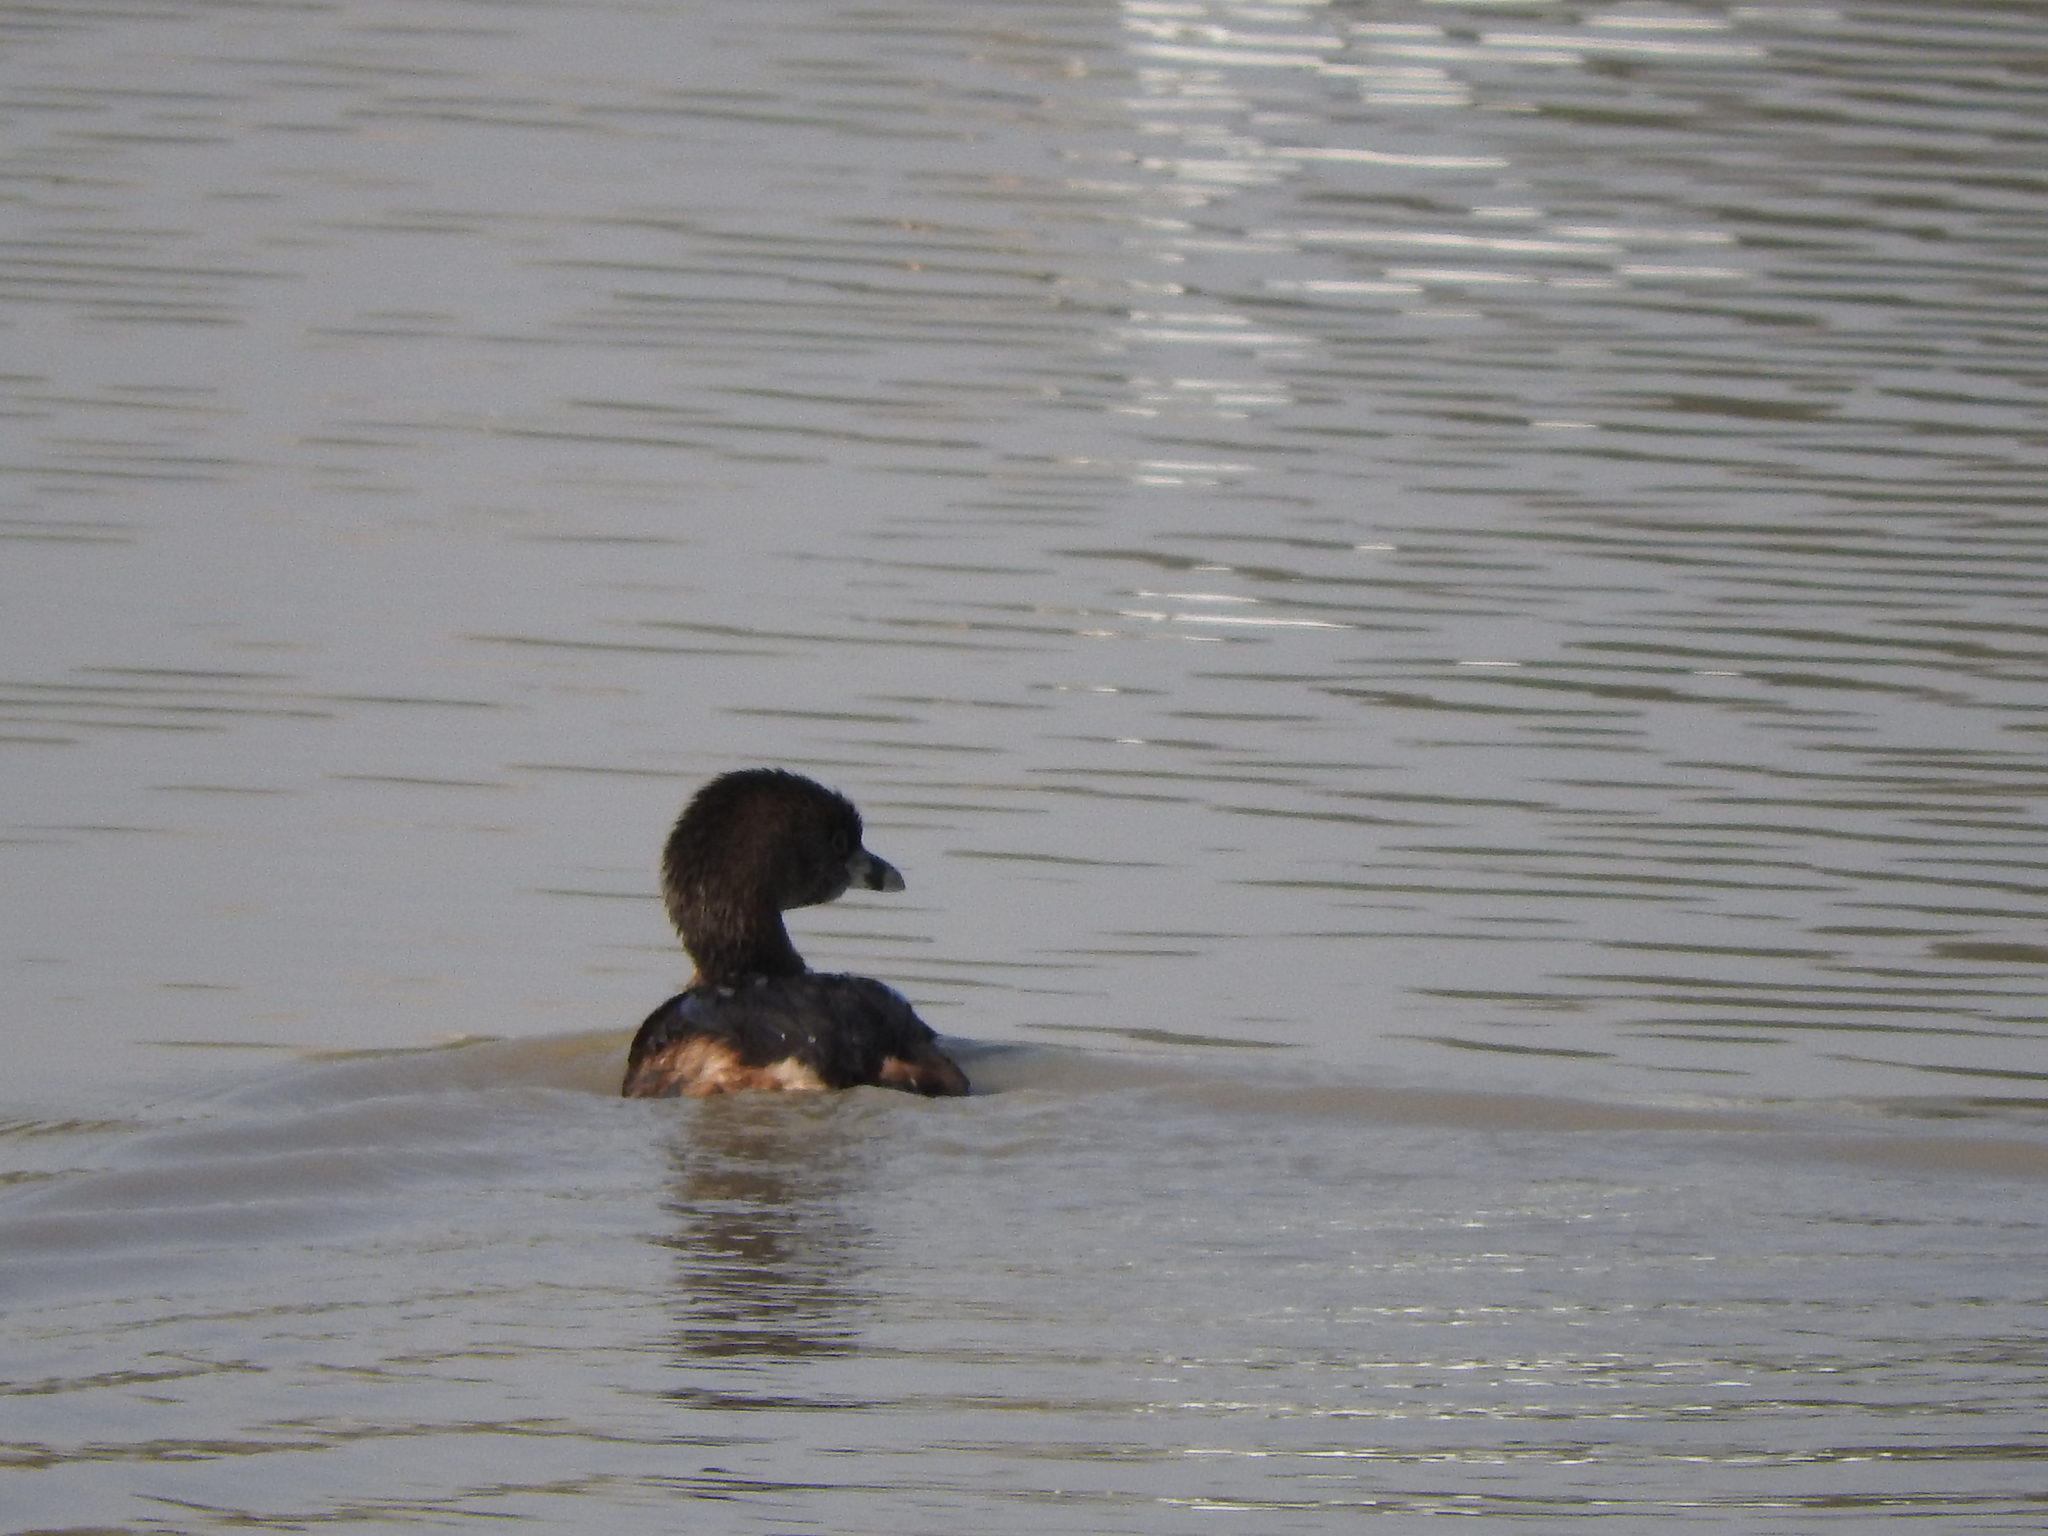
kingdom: Animalia
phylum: Chordata
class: Aves
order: Podicipediformes
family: Podicipedidae
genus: Podilymbus
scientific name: Podilymbus podiceps
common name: Pied-billed grebe
